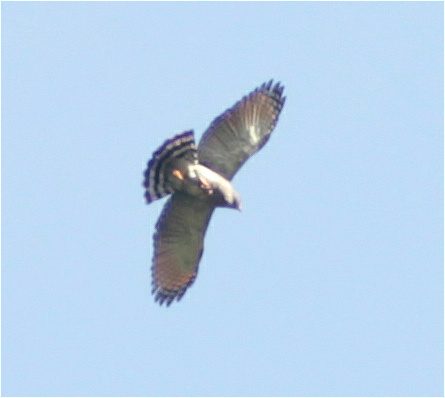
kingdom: Animalia
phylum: Chordata
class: Aves
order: Accipitriformes
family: Accipitridae
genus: Rupornis
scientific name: Rupornis magnirostris
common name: Roadside hawk
